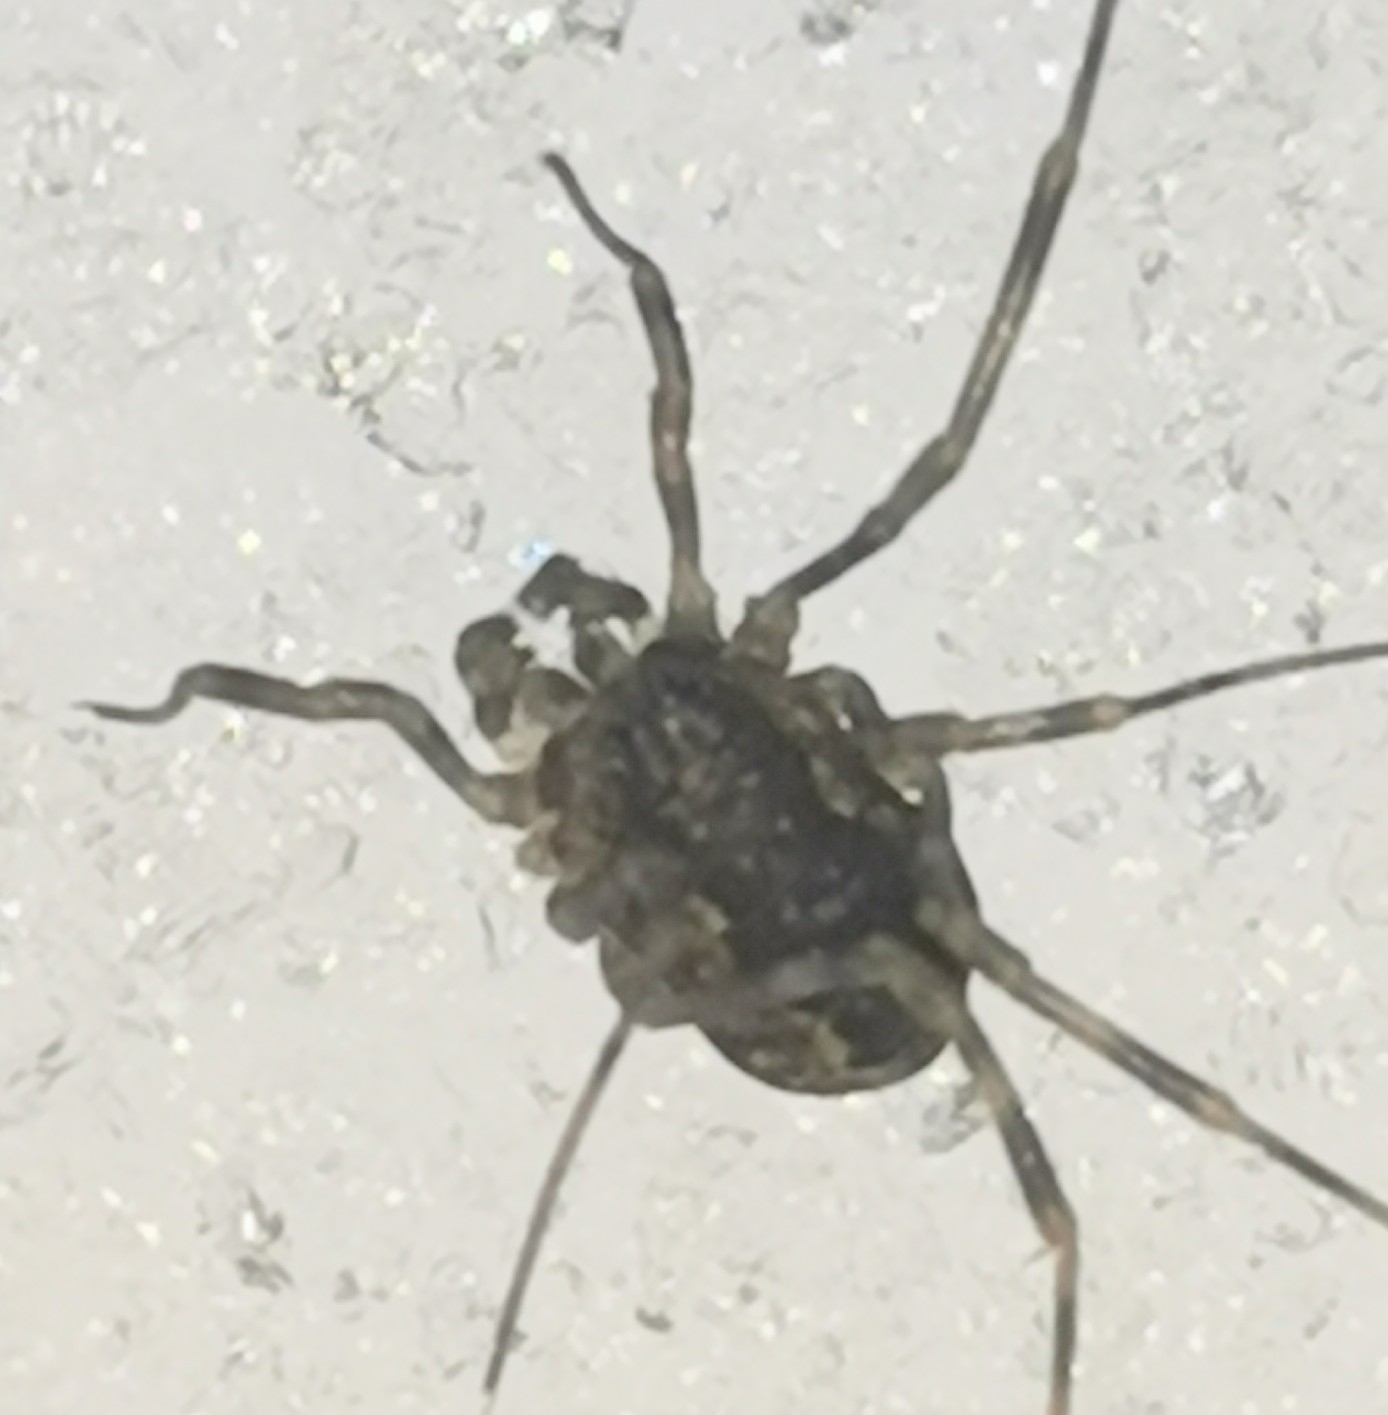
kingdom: Animalia
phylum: Arthropoda
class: Arachnida
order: Opiliones
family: Phalangiidae
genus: Rilaena
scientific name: Rilaena triangularis
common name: Spring harvestman
